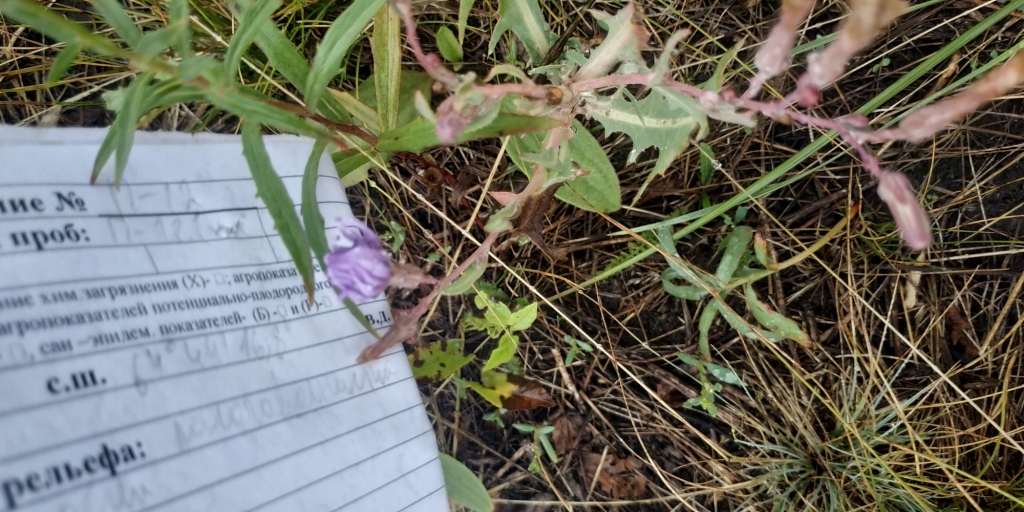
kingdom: Plantae
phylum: Tracheophyta
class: Magnoliopsida
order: Asterales
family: Asteraceae
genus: Lactuca
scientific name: Lactuca tatarica
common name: Blue lettuce
